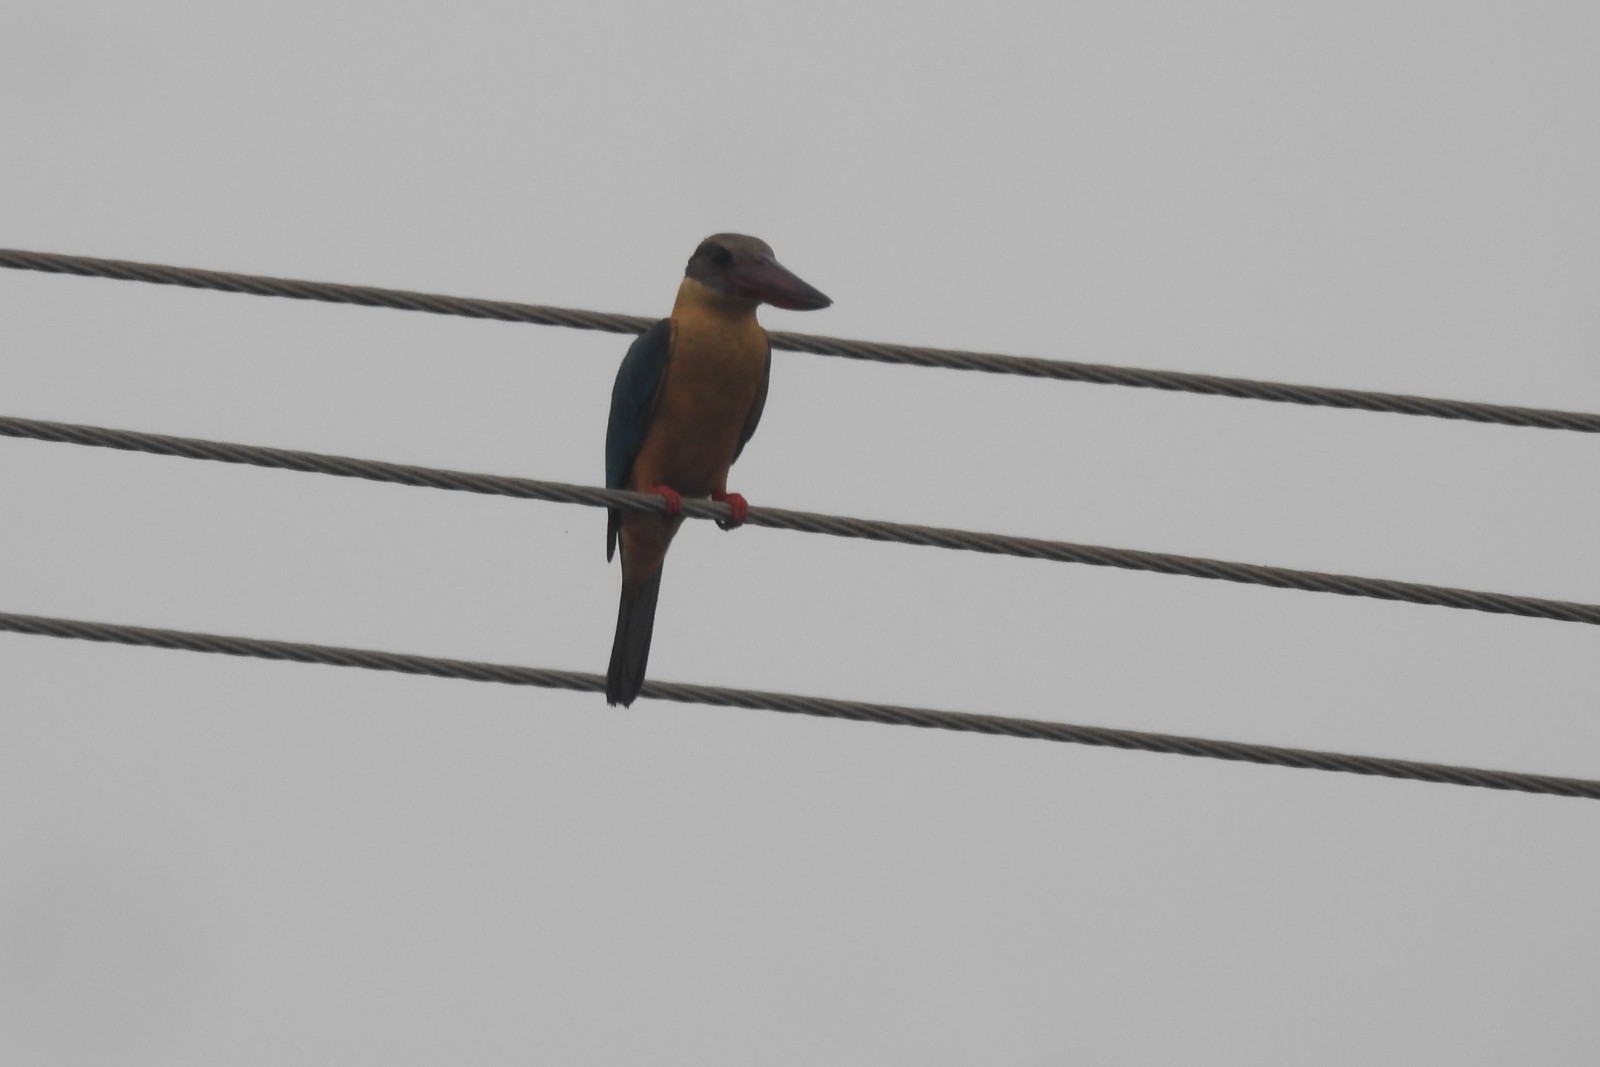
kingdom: Animalia
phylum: Chordata
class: Aves
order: Coraciiformes
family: Alcedinidae
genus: Pelargopsis
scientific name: Pelargopsis capensis
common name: Stork-billed kingfisher
